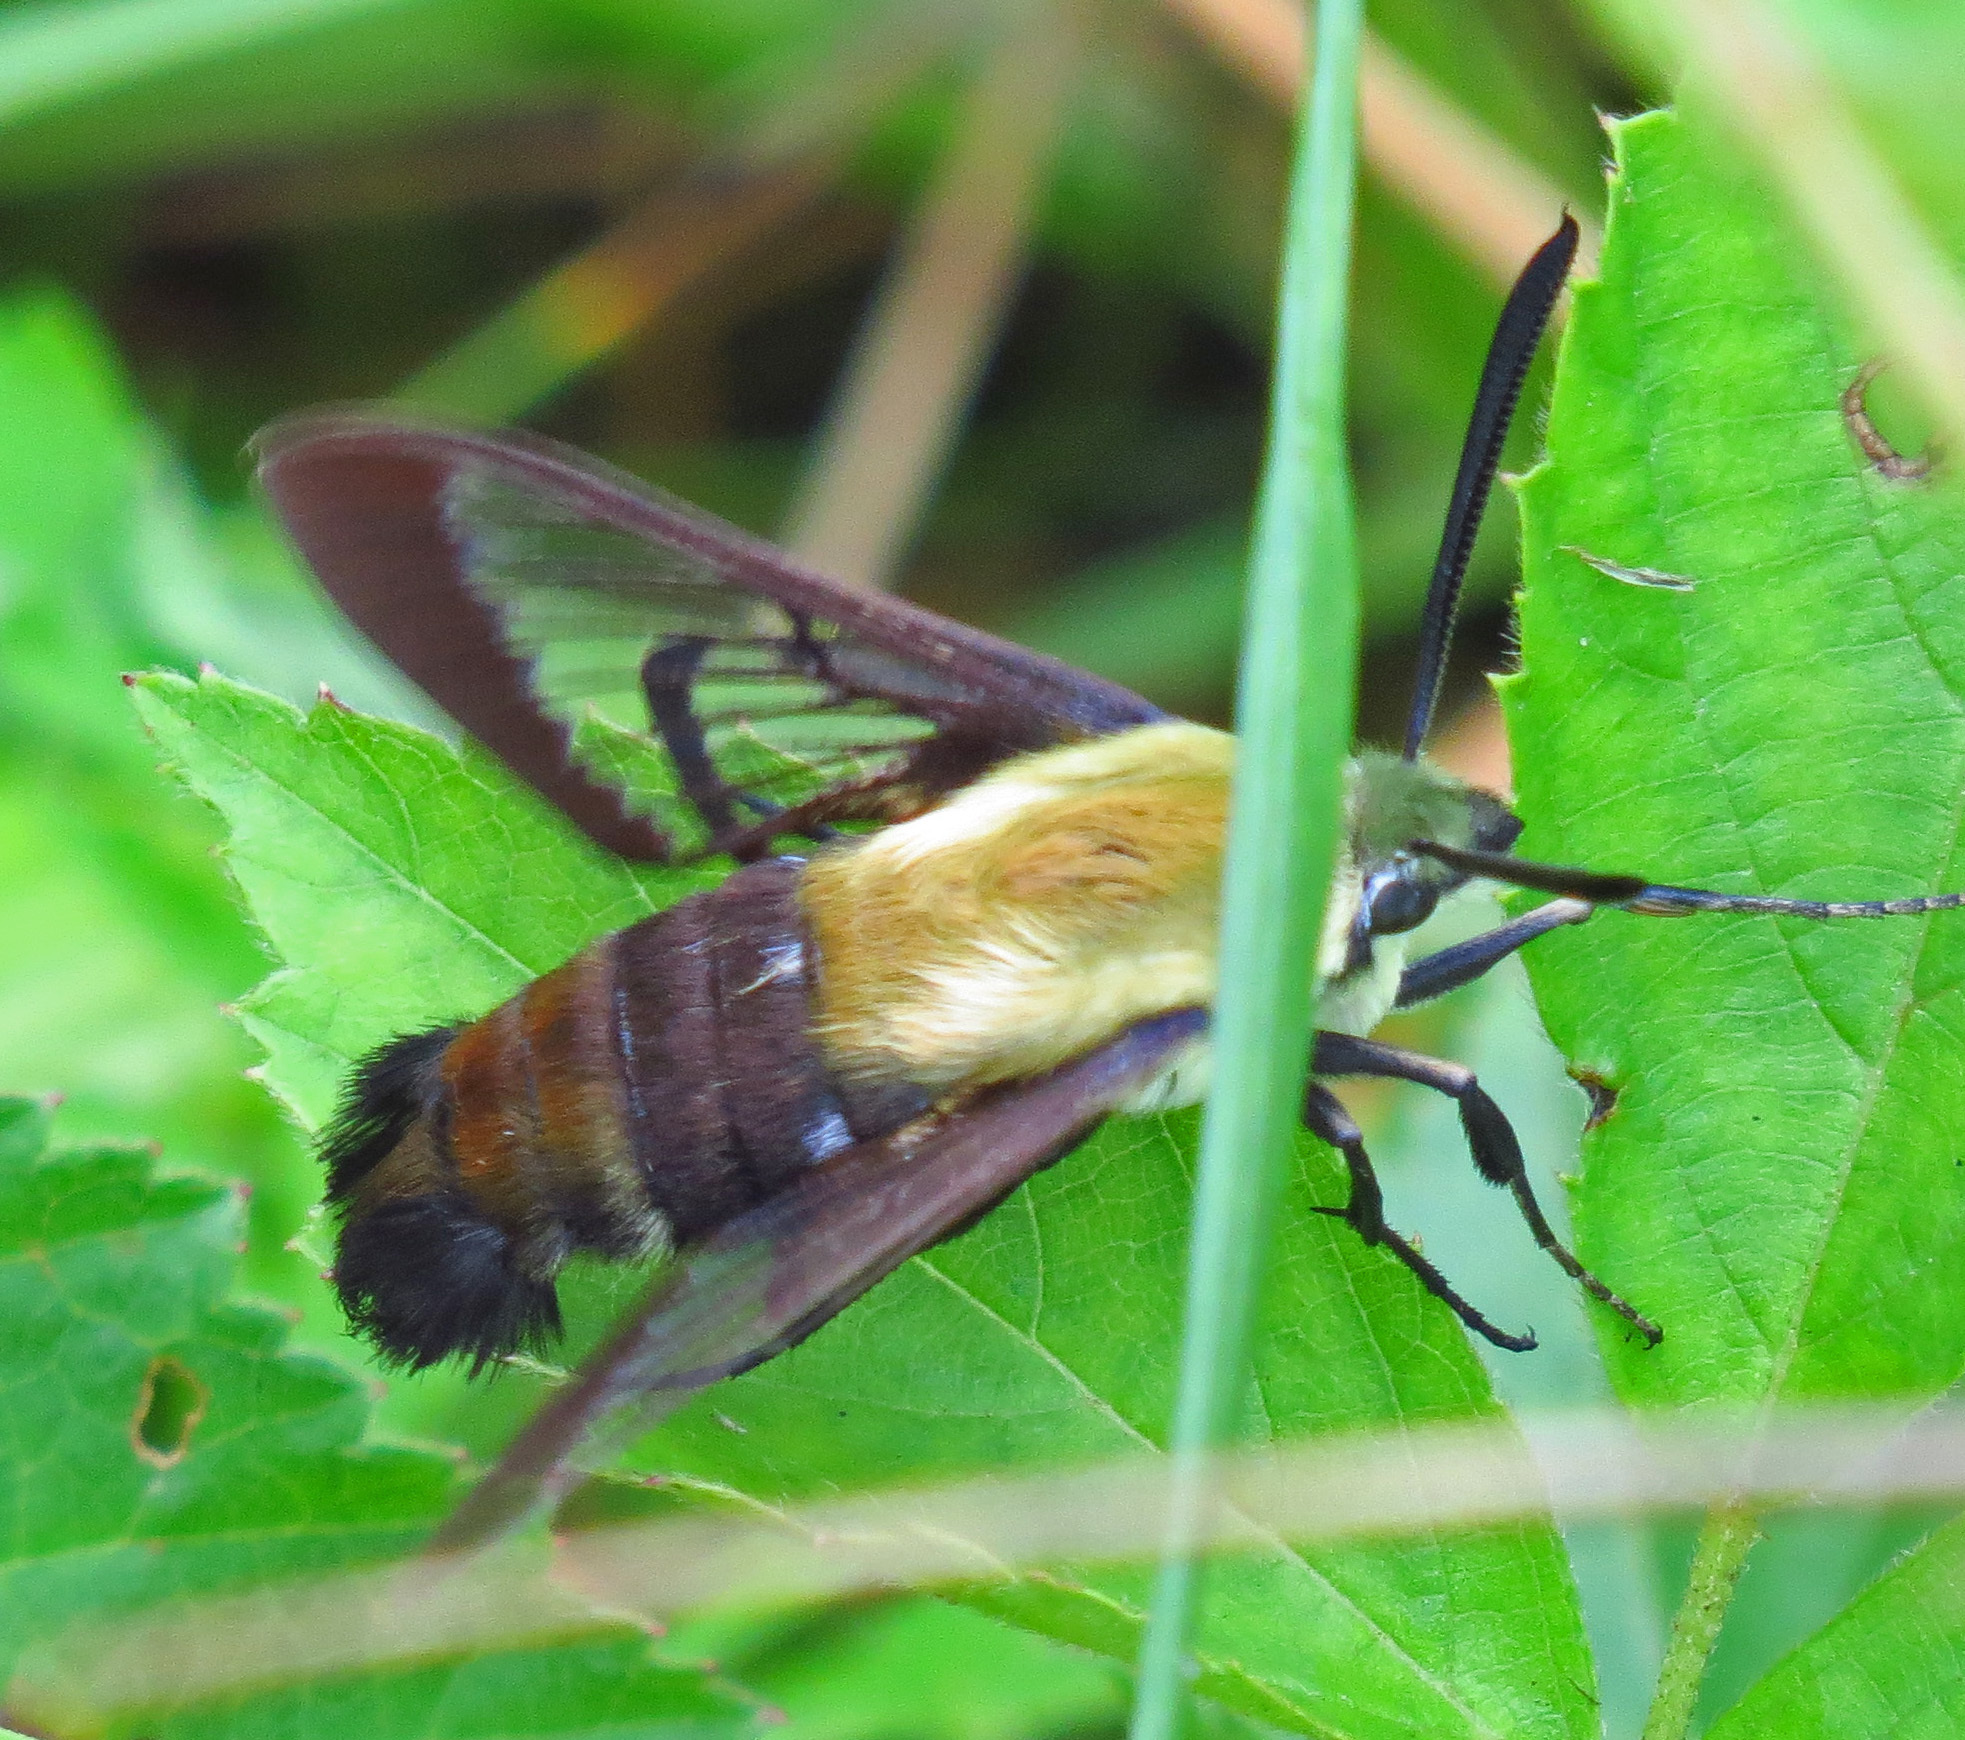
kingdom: Animalia
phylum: Arthropoda
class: Insecta
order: Lepidoptera
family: Sphingidae
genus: Hemaris
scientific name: Hemaris diffinis
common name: Bumblebee moth
